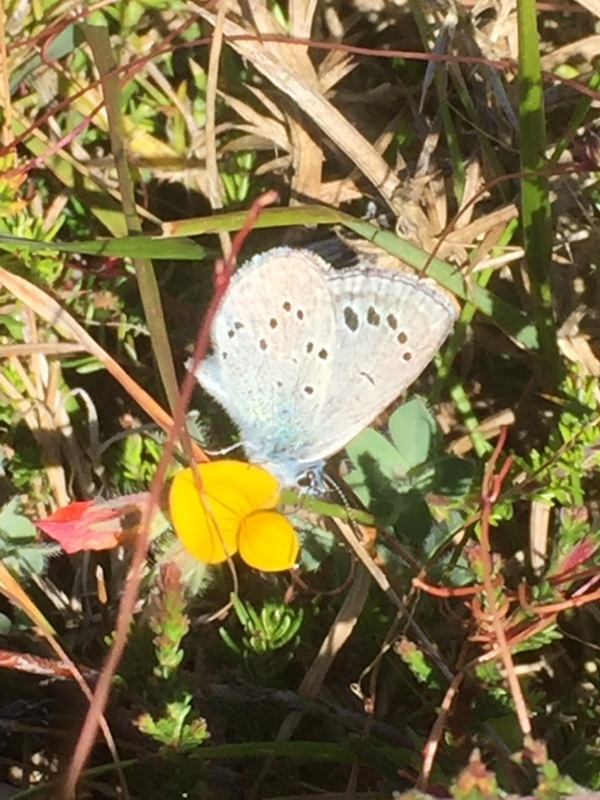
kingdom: Animalia
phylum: Arthropoda
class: Insecta
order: Lepidoptera
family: Lycaenidae
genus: Glaucopsyche
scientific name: Glaucopsyche melanops
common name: Black-eyed blue
